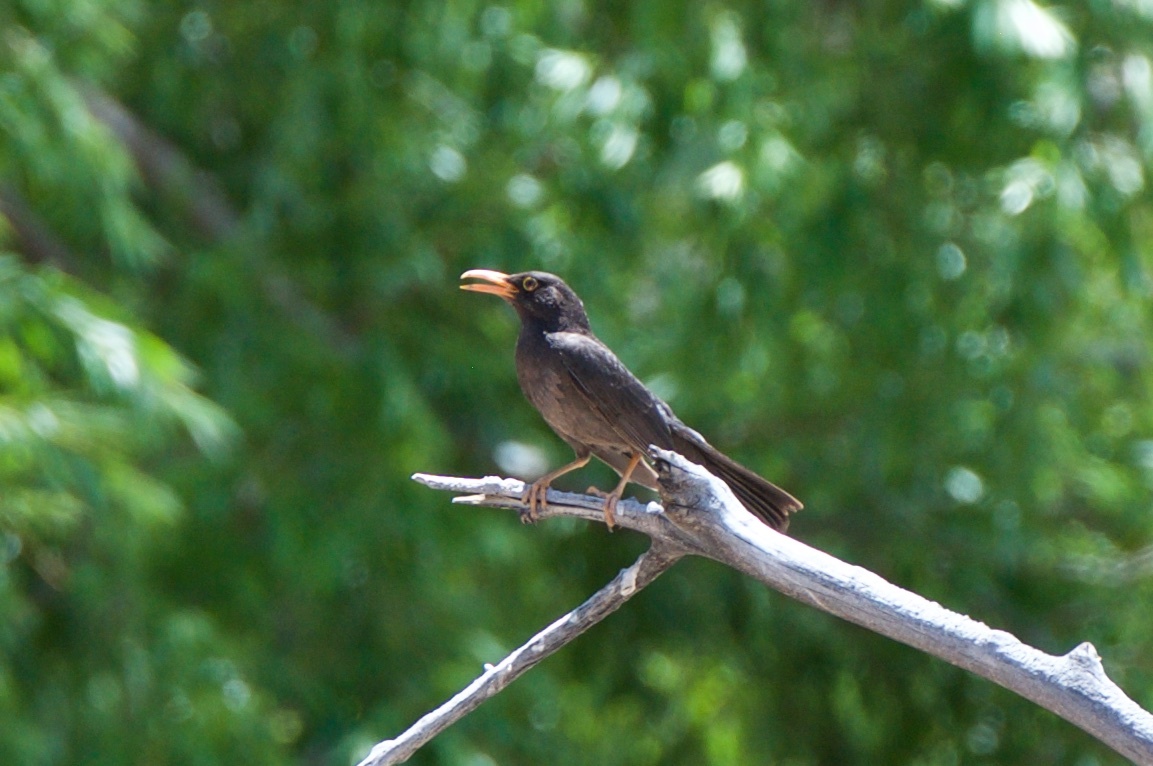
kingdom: Animalia
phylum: Chordata
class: Aves
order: Passeriformes
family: Turdidae
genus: Turdus
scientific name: Turdus chiguanco
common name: Chiguanco thrush
